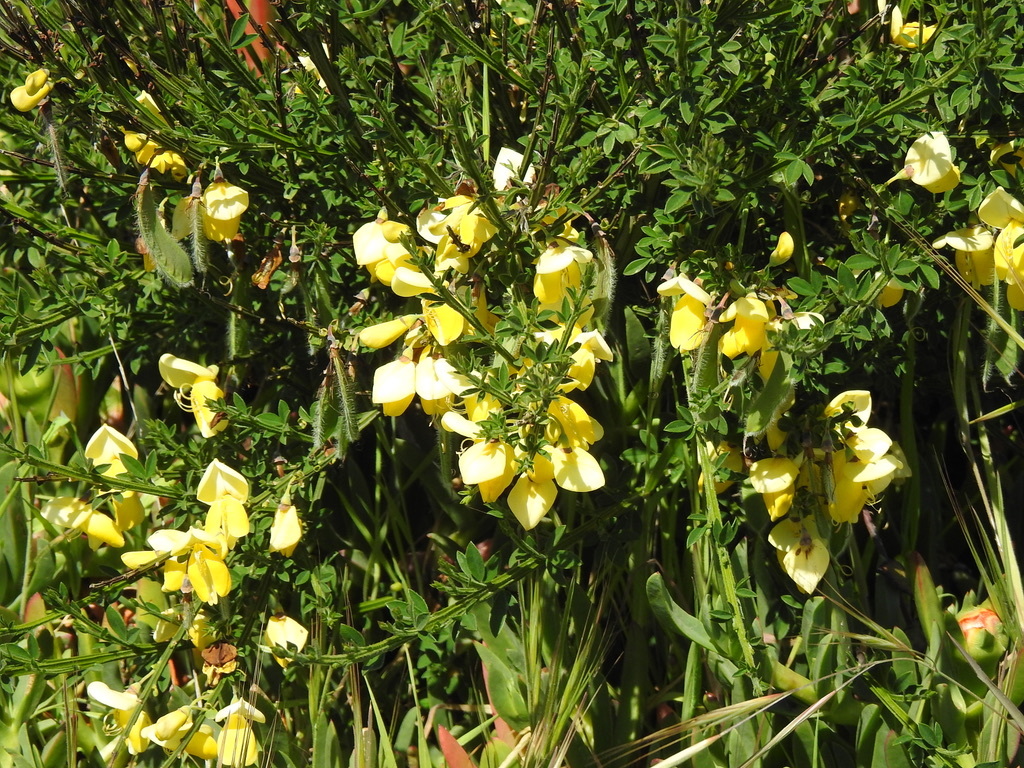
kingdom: Plantae
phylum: Tracheophyta
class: Magnoliopsida
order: Fabales
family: Fabaceae
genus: Cytisus
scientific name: Cytisus scoparius
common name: Scotch broom
